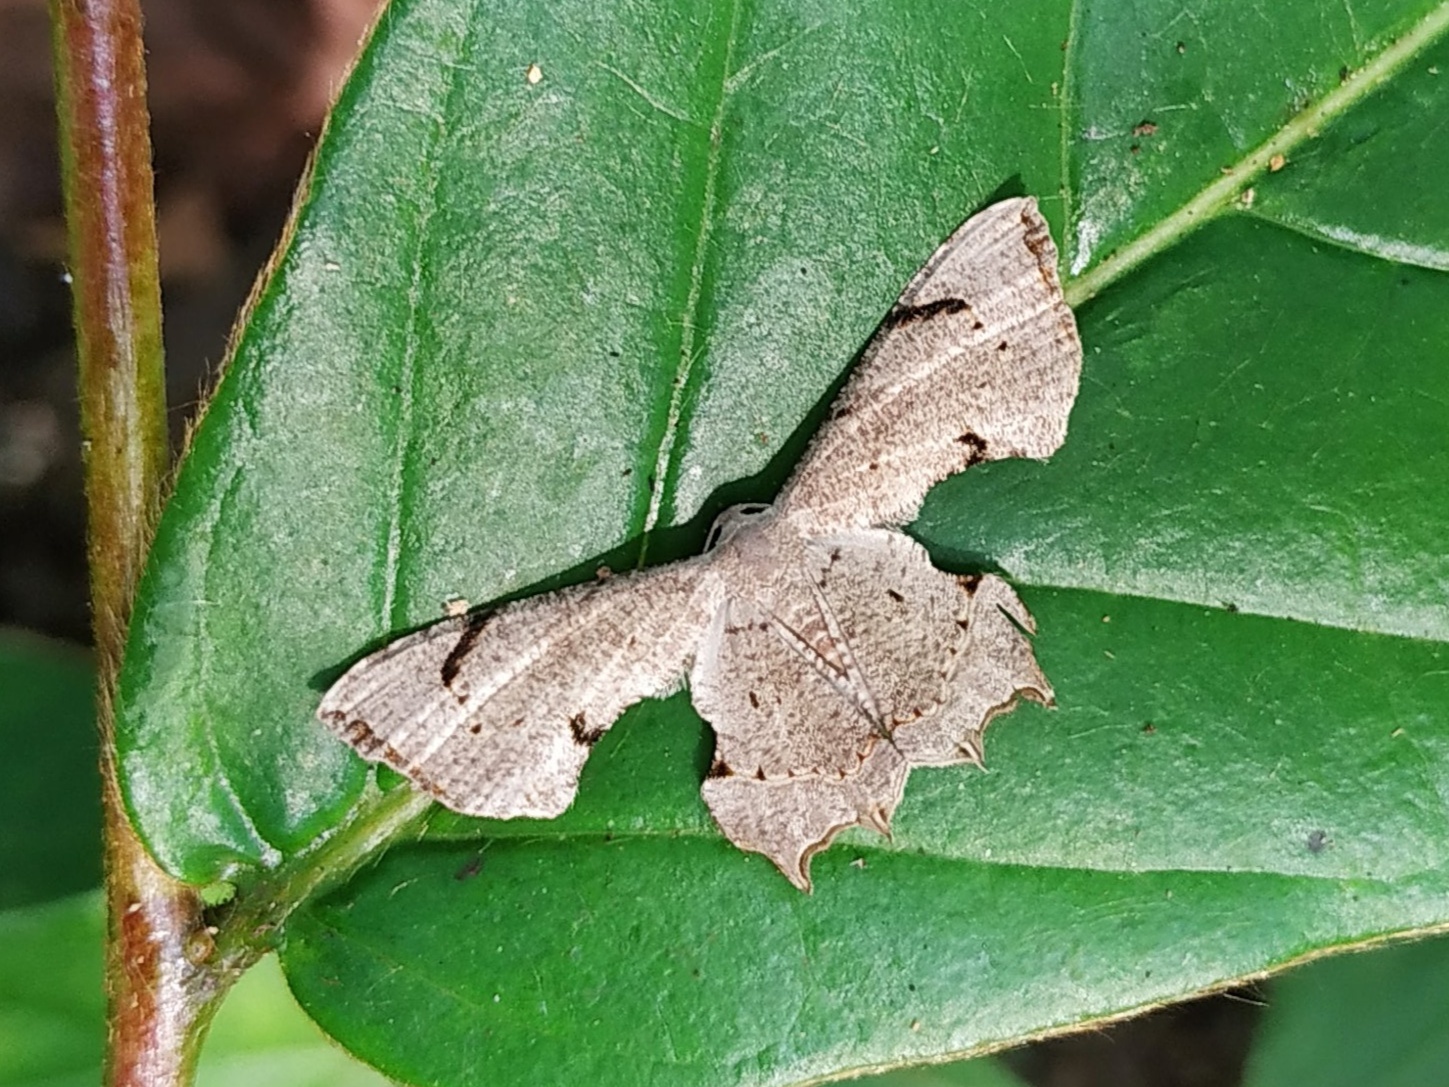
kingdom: Animalia
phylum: Arthropoda
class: Insecta
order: Lepidoptera
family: Uraniidae
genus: Dysaethria
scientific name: Dysaethria quadricaudata
